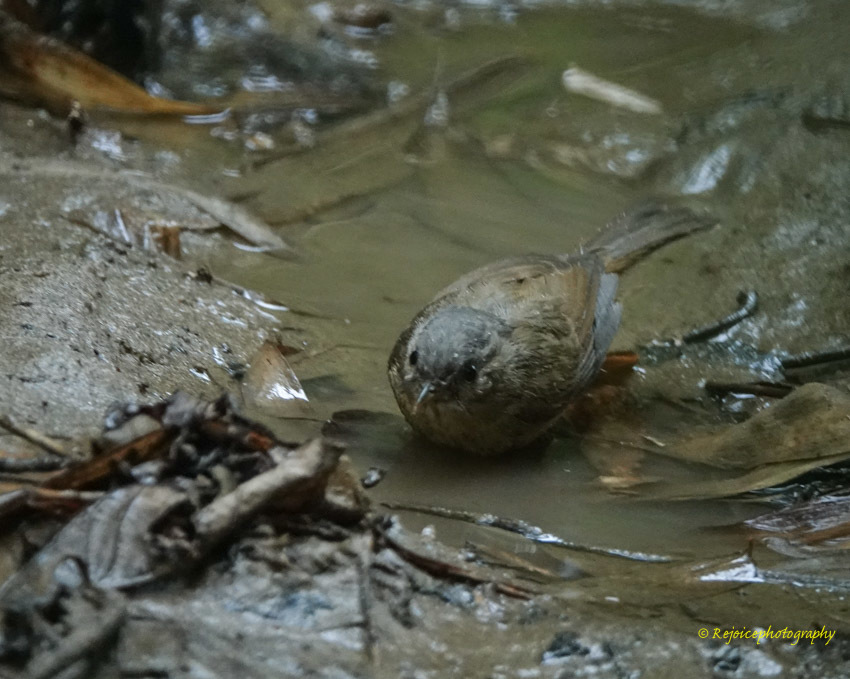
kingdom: Animalia
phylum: Chordata
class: Aves
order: Passeriformes
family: Pellorneidae
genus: Alcippe
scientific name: Alcippe poioicephala
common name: Brown-cheeked fulvetta
